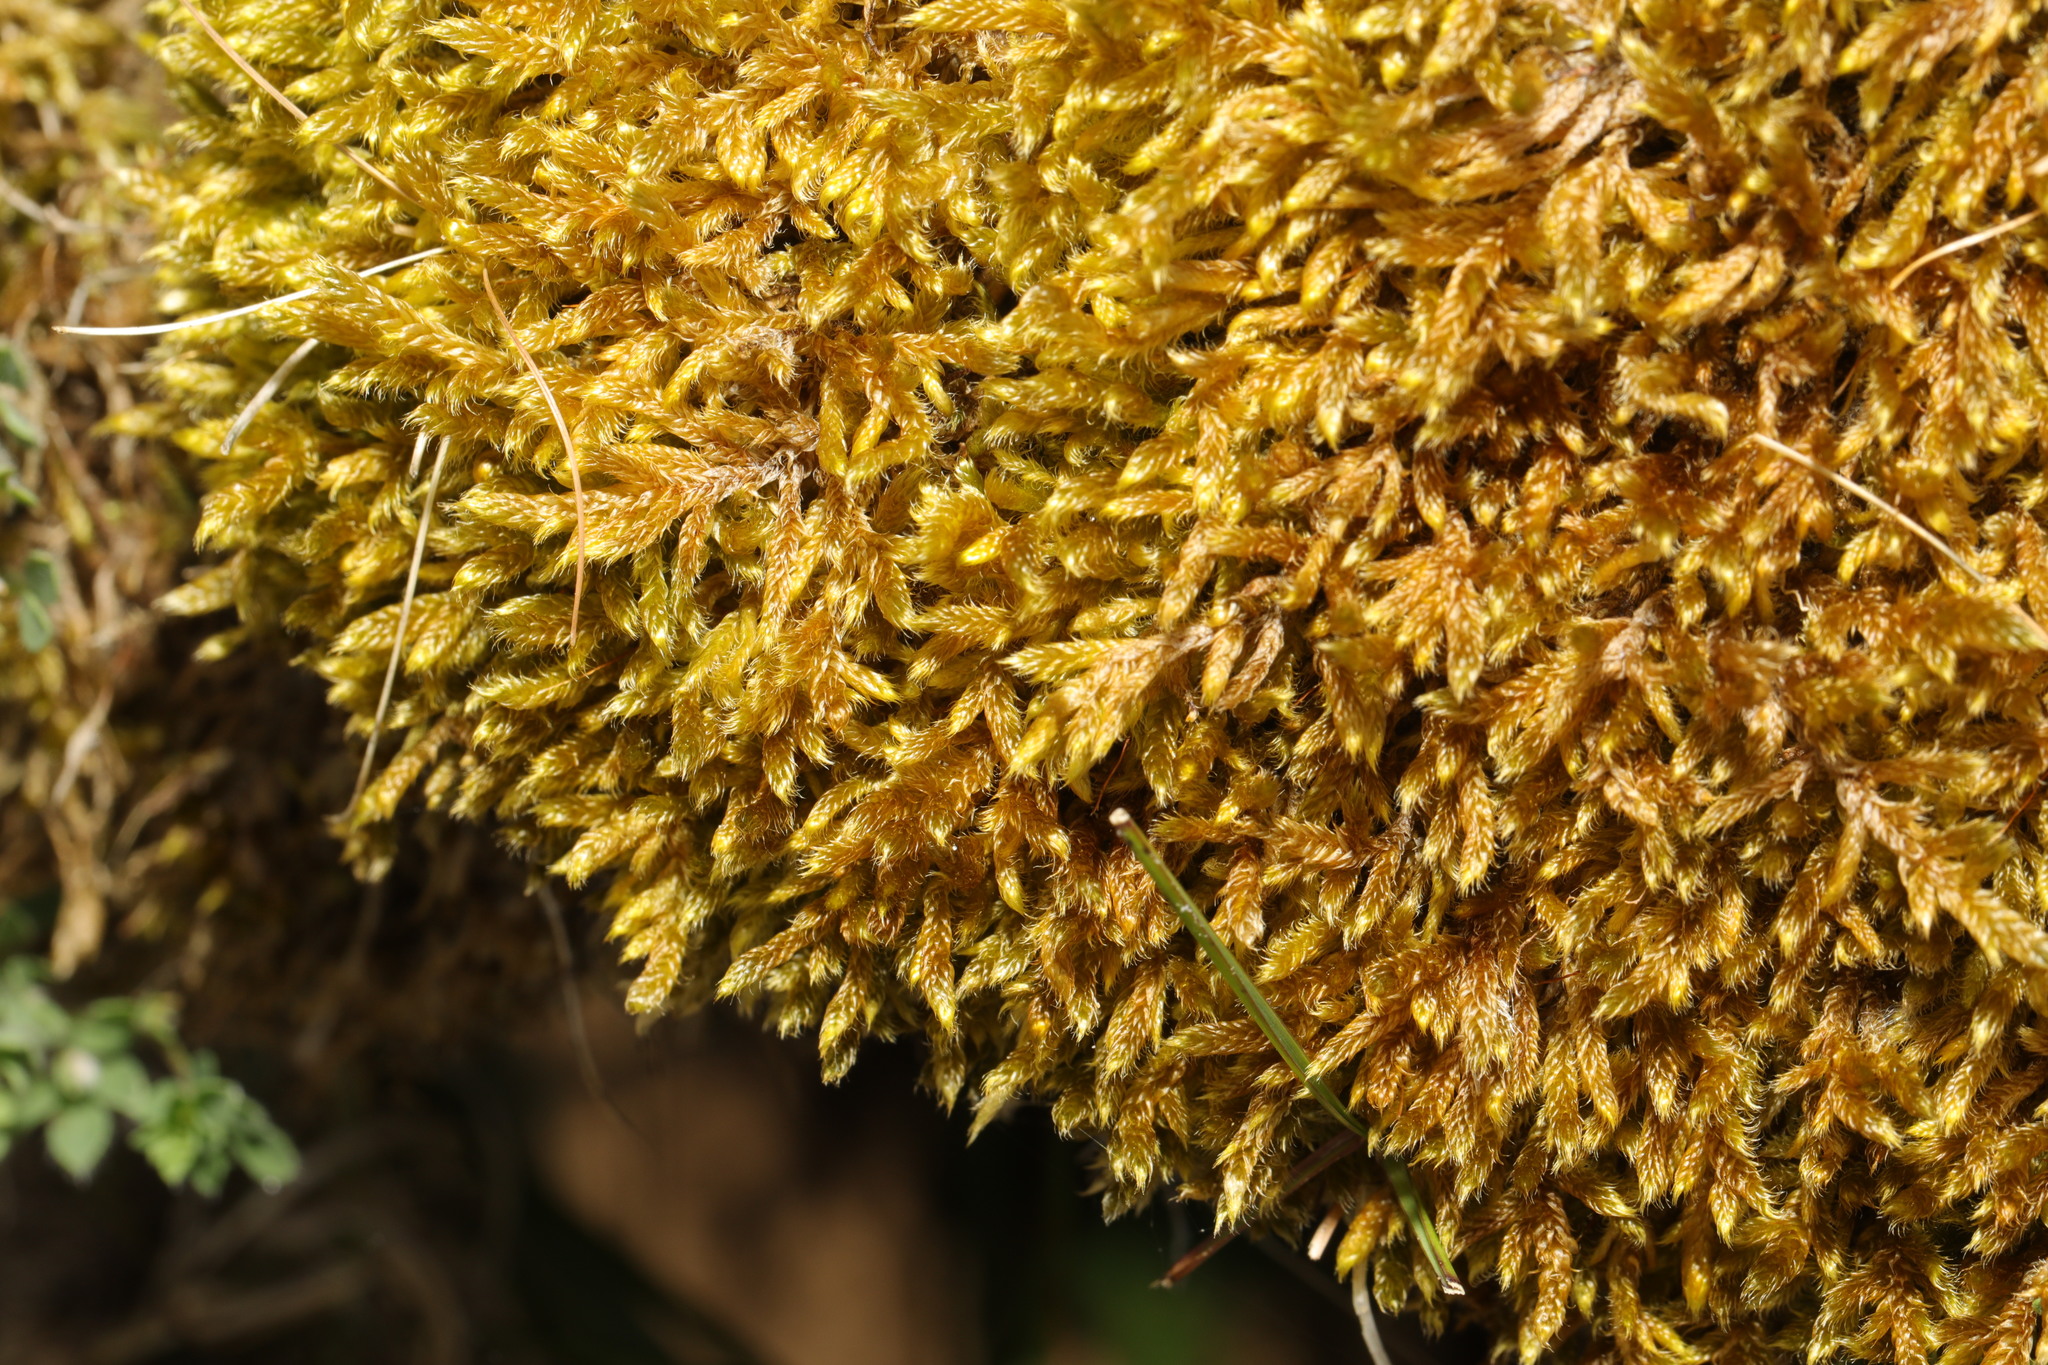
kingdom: Plantae
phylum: Bryophyta
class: Bryopsida
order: Hypnales
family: Hypnaceae
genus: Hypnum
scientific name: Hypnum cupressiforme
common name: Cypress-leaved plait-moss
